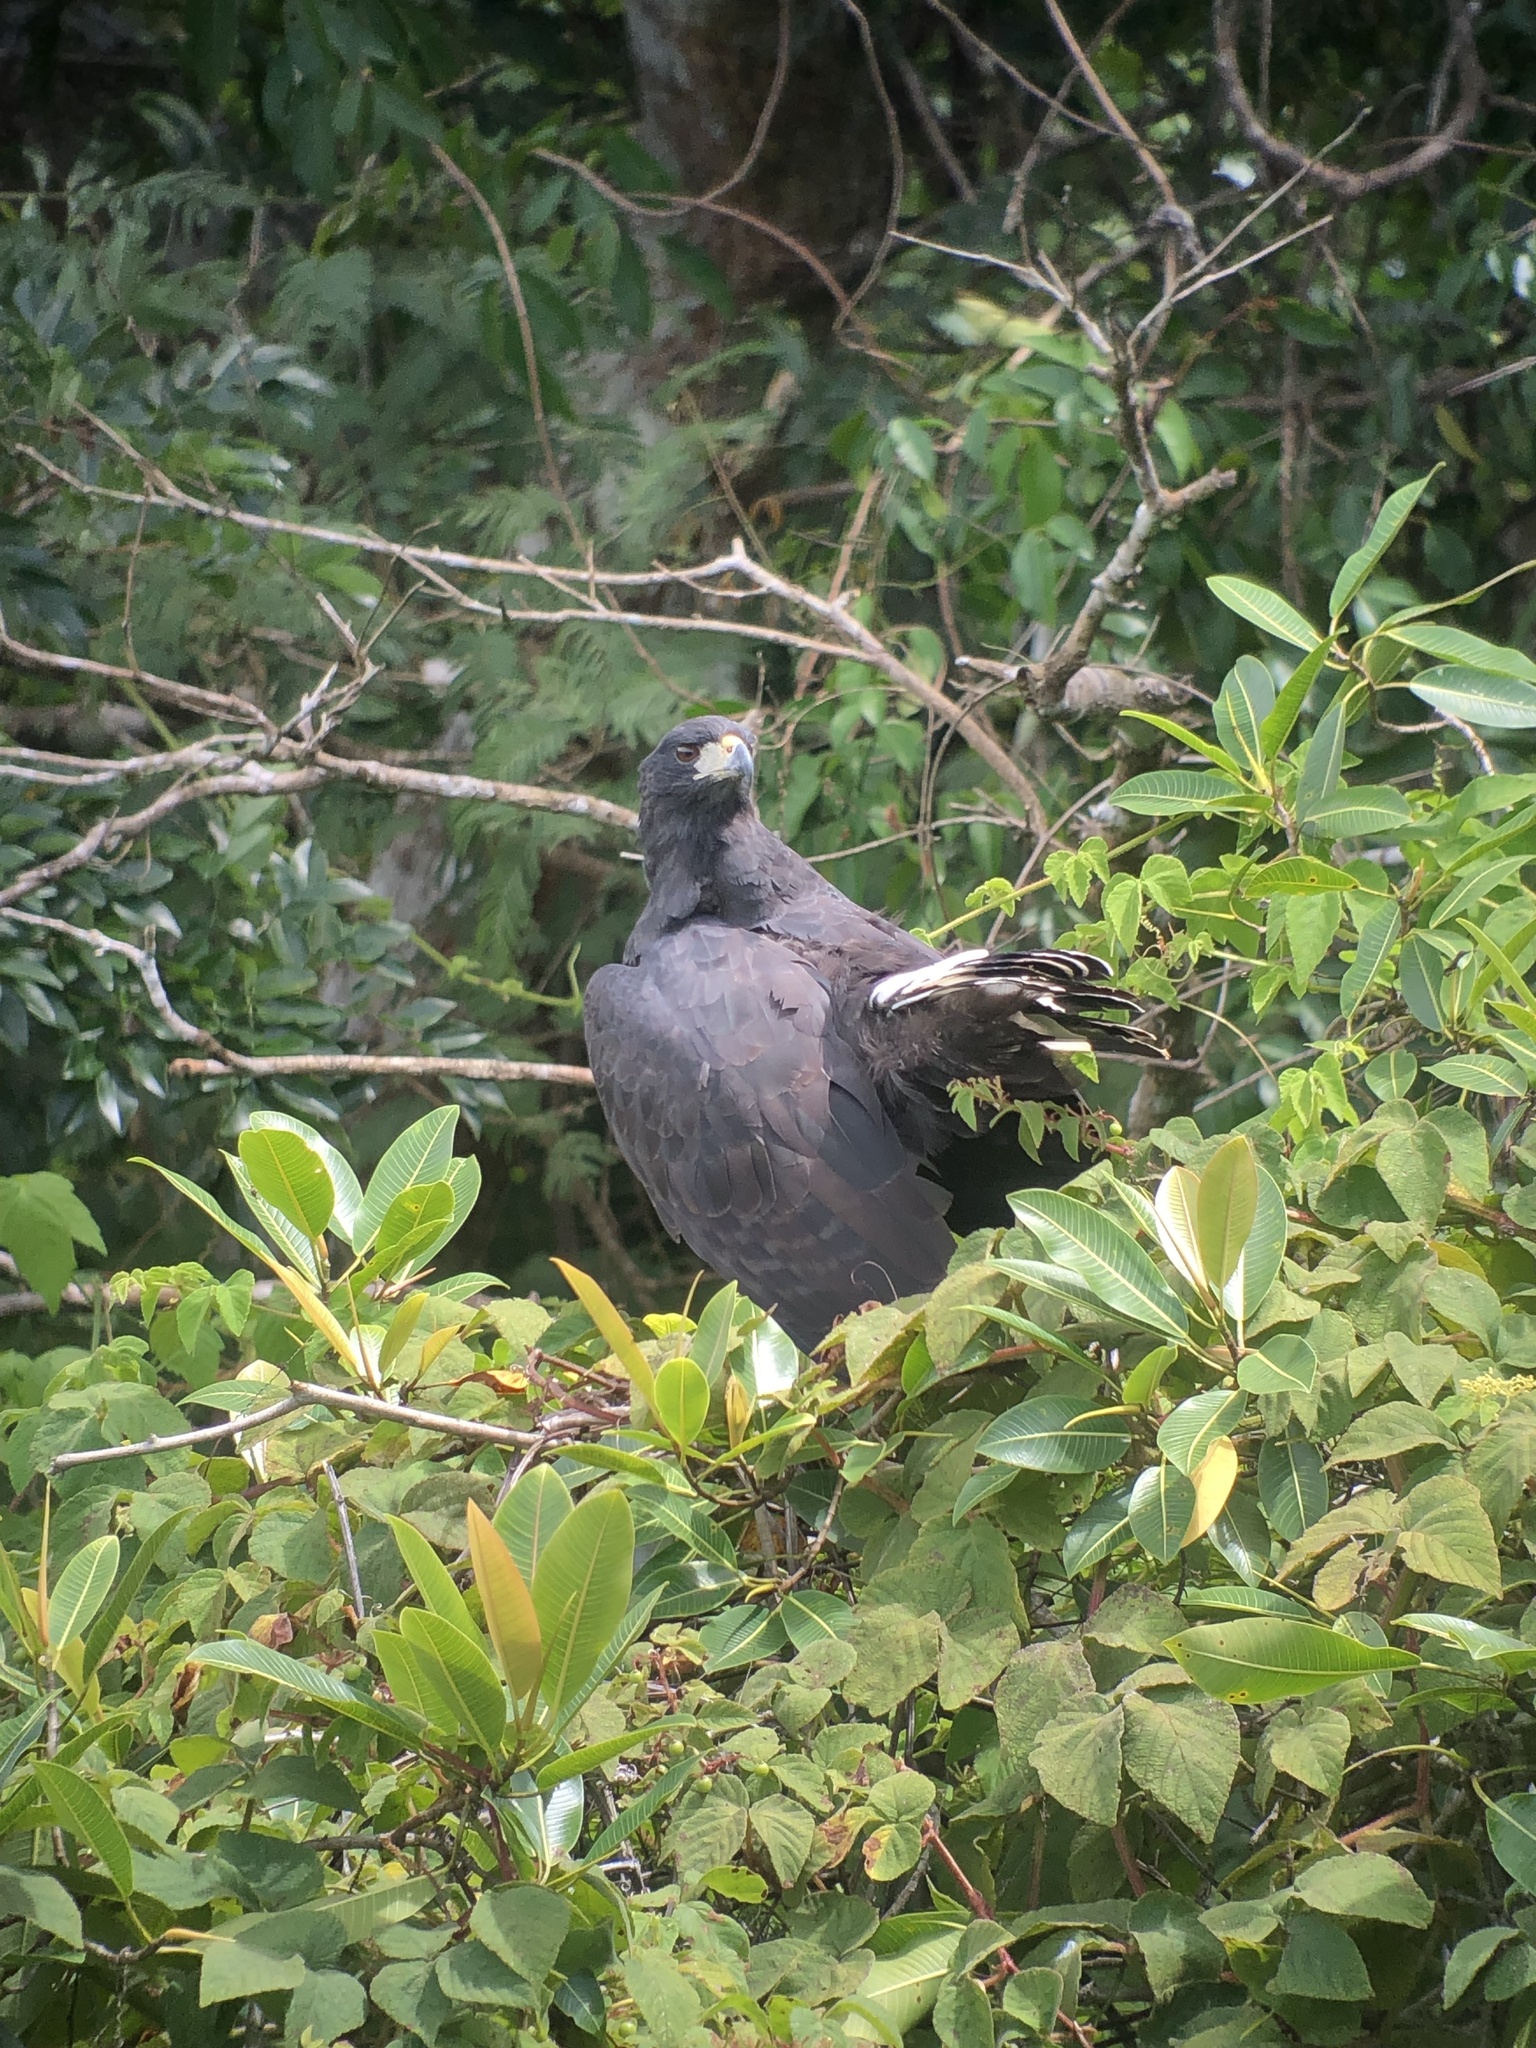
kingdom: Animalia
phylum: Chordata
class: Aves
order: Accipitriformes
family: Accipitridae
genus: Buteogallus
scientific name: Buteogallus urubitinga
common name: Great black hawk
